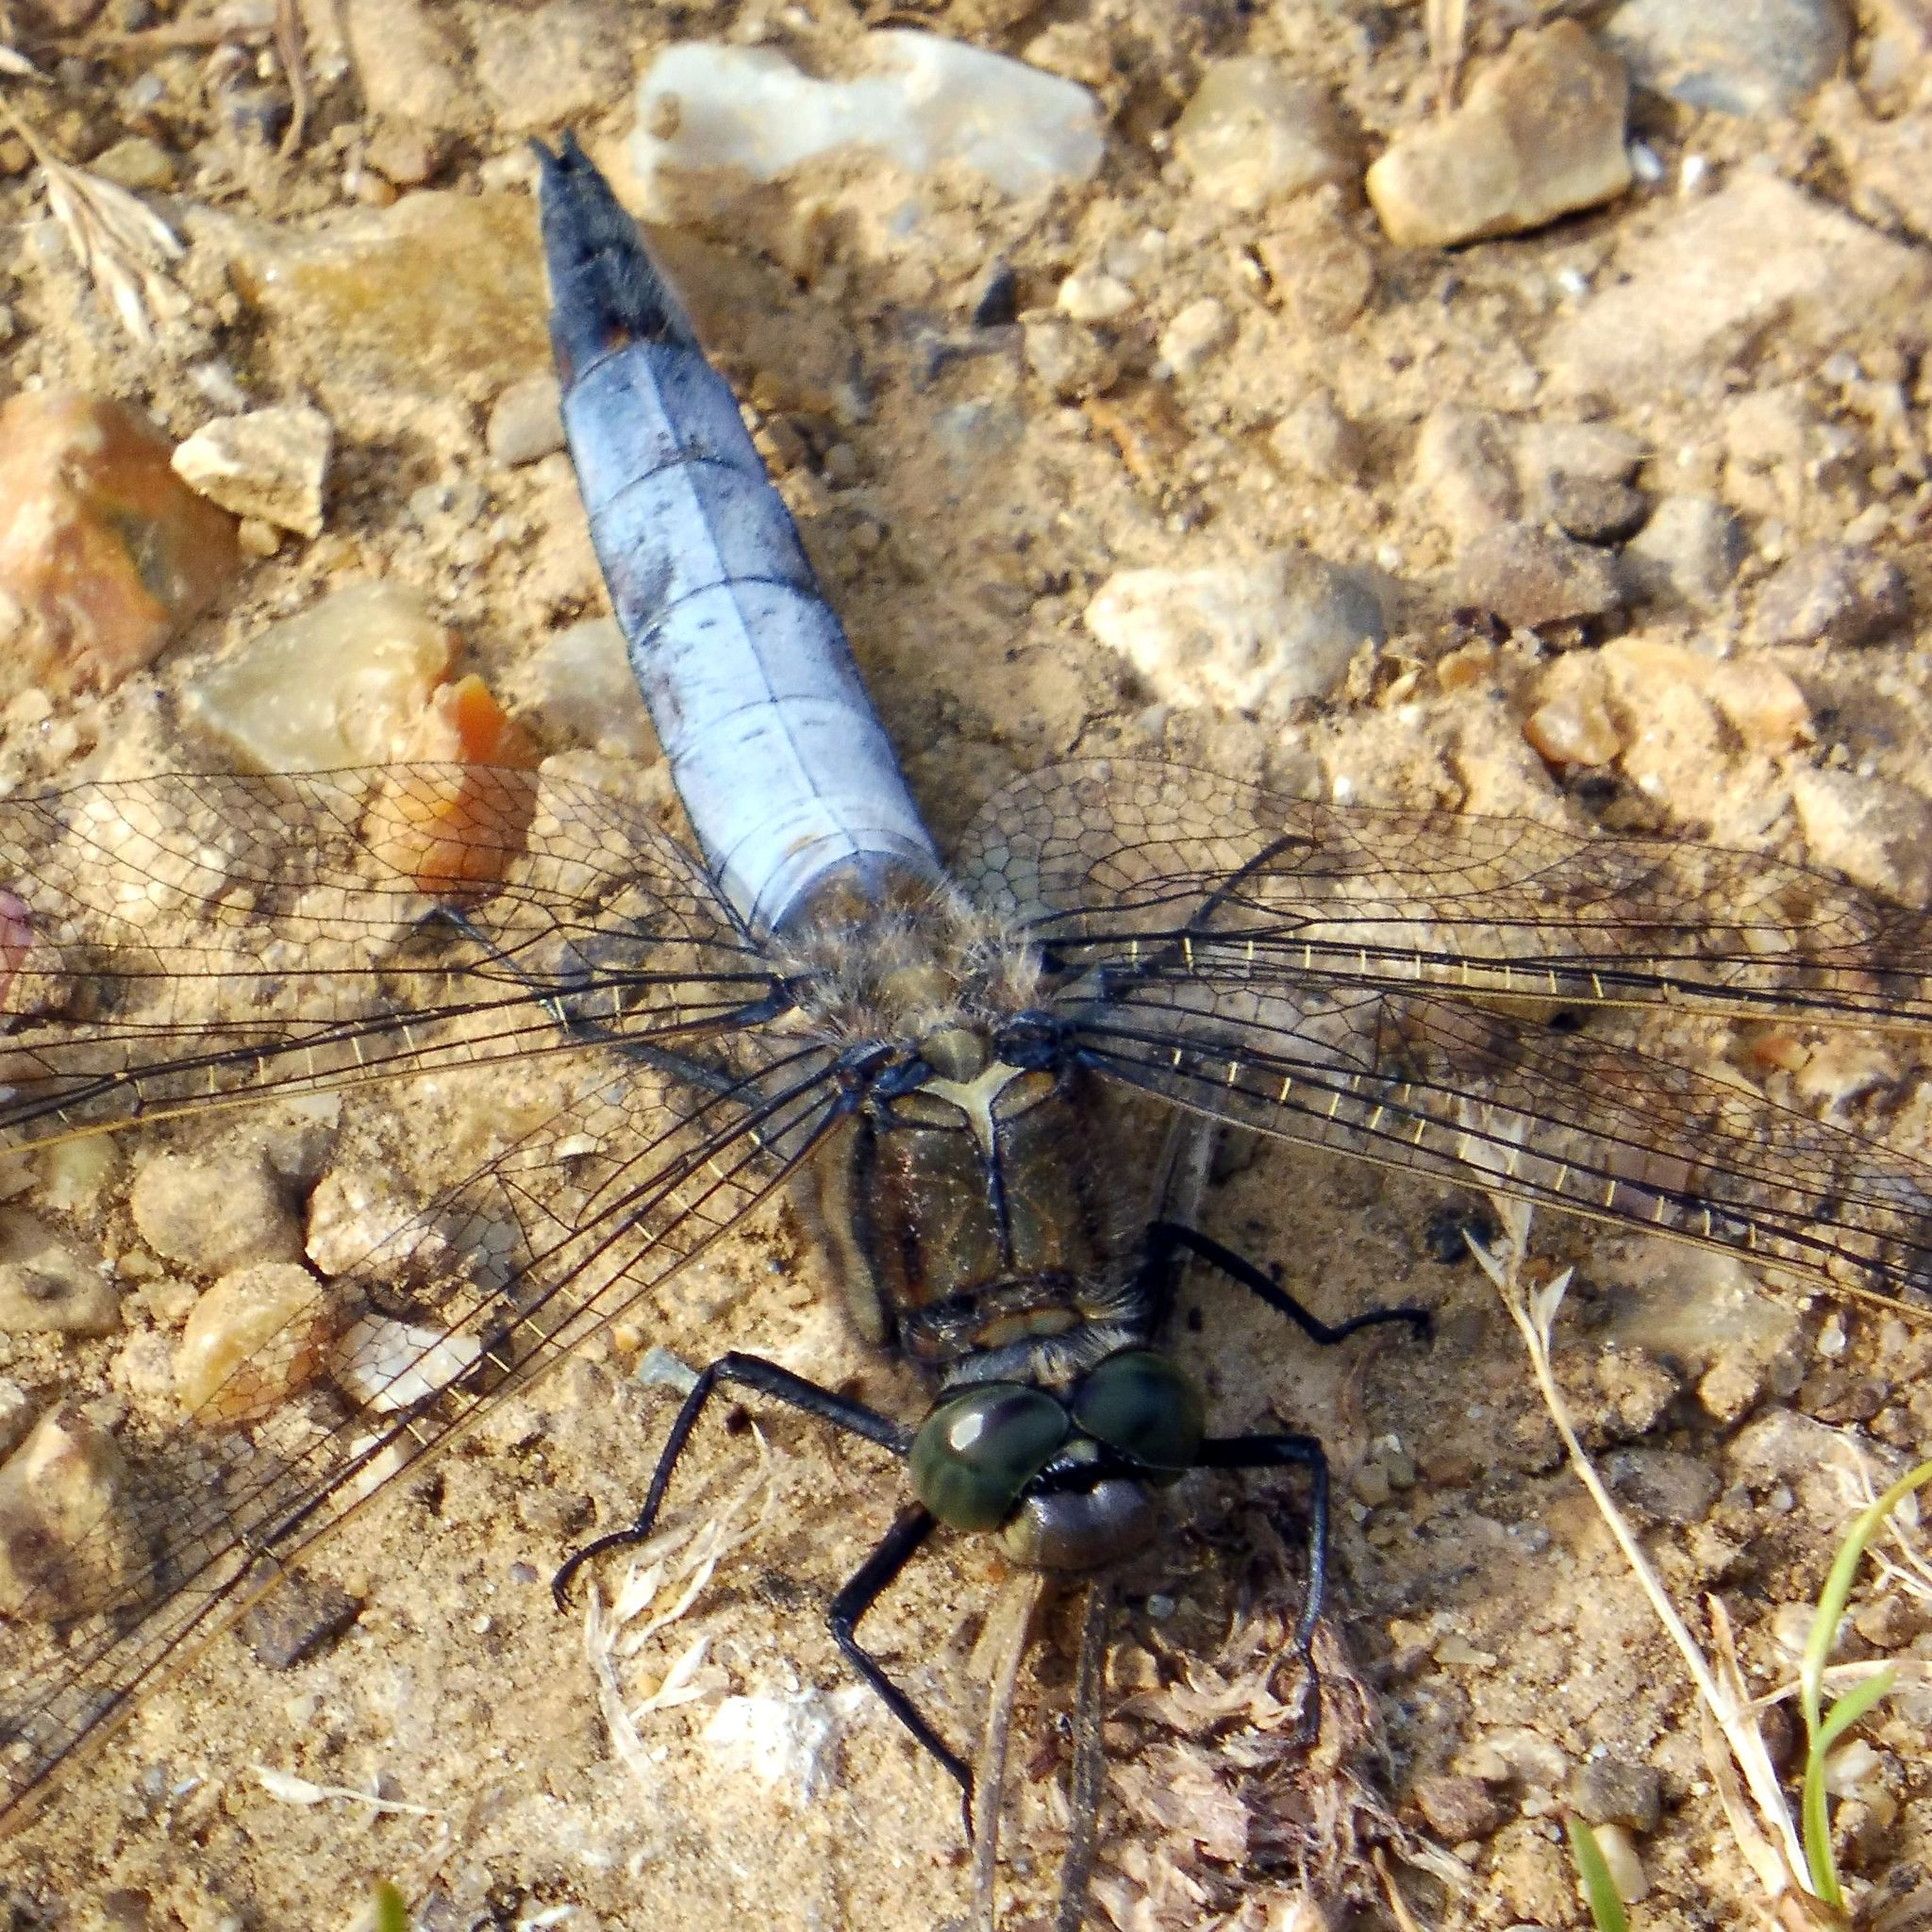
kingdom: Animalia
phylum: Arthropoda
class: Insecta
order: Odonata
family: Libellulidae
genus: Orthetrum
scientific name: Orthetrum cancellatum
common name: Black-tailed skimmer
